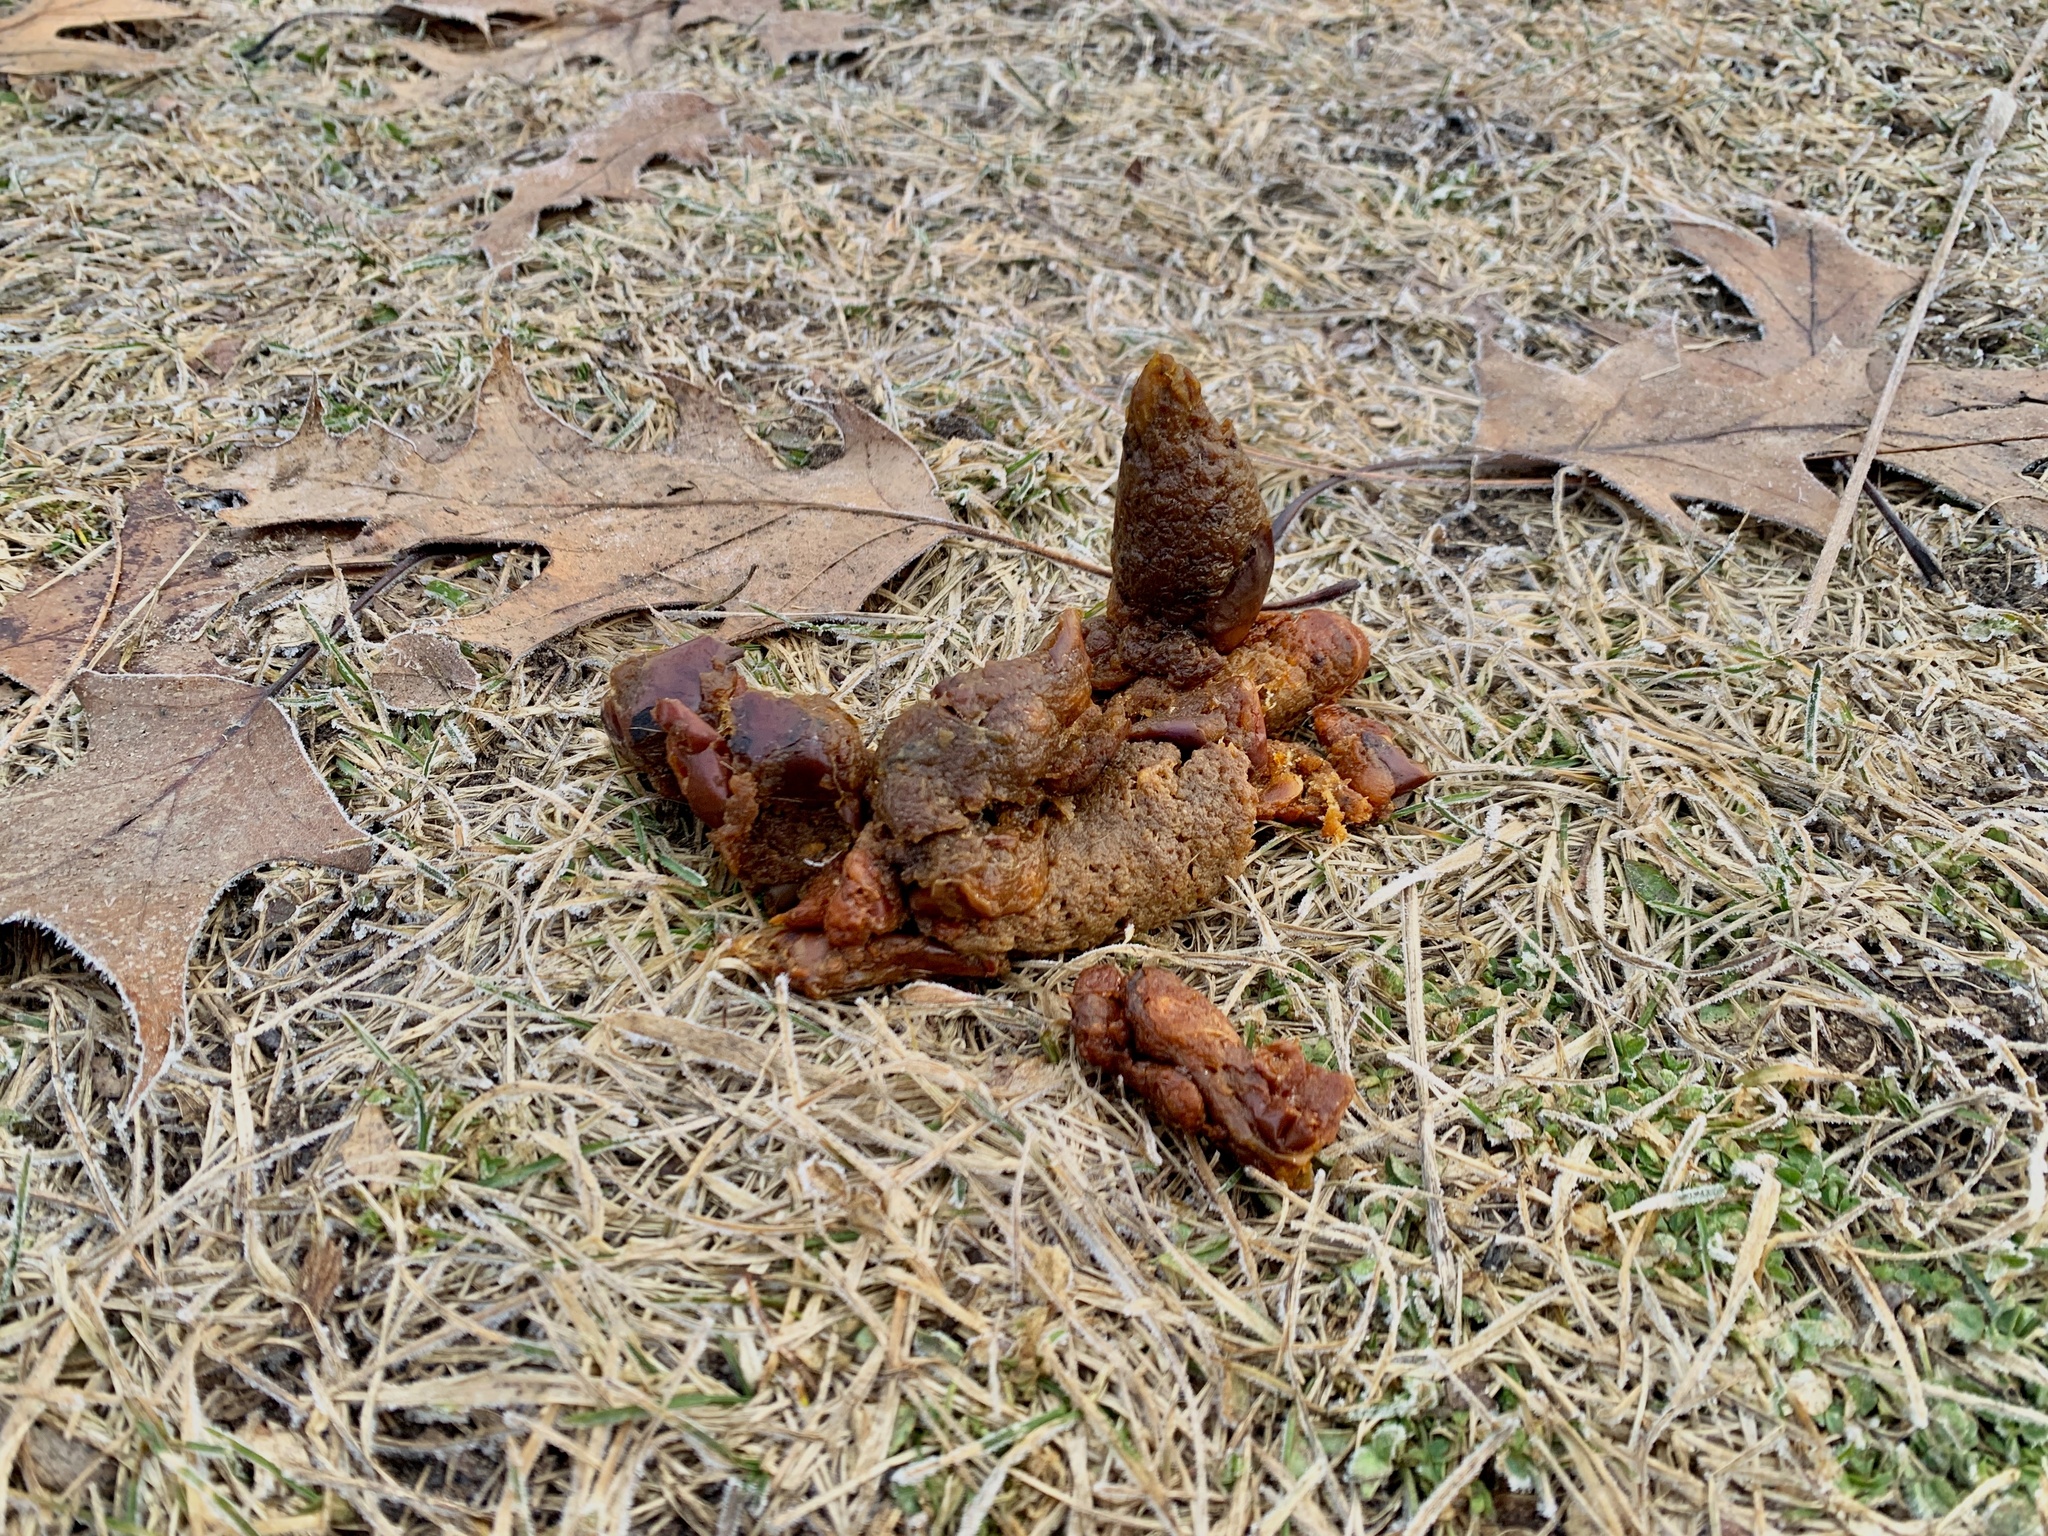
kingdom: Animalia
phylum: Chordata
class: Mammalia
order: Carnivora
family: Canidae
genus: Canis
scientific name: Canis latrans
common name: Coyote
